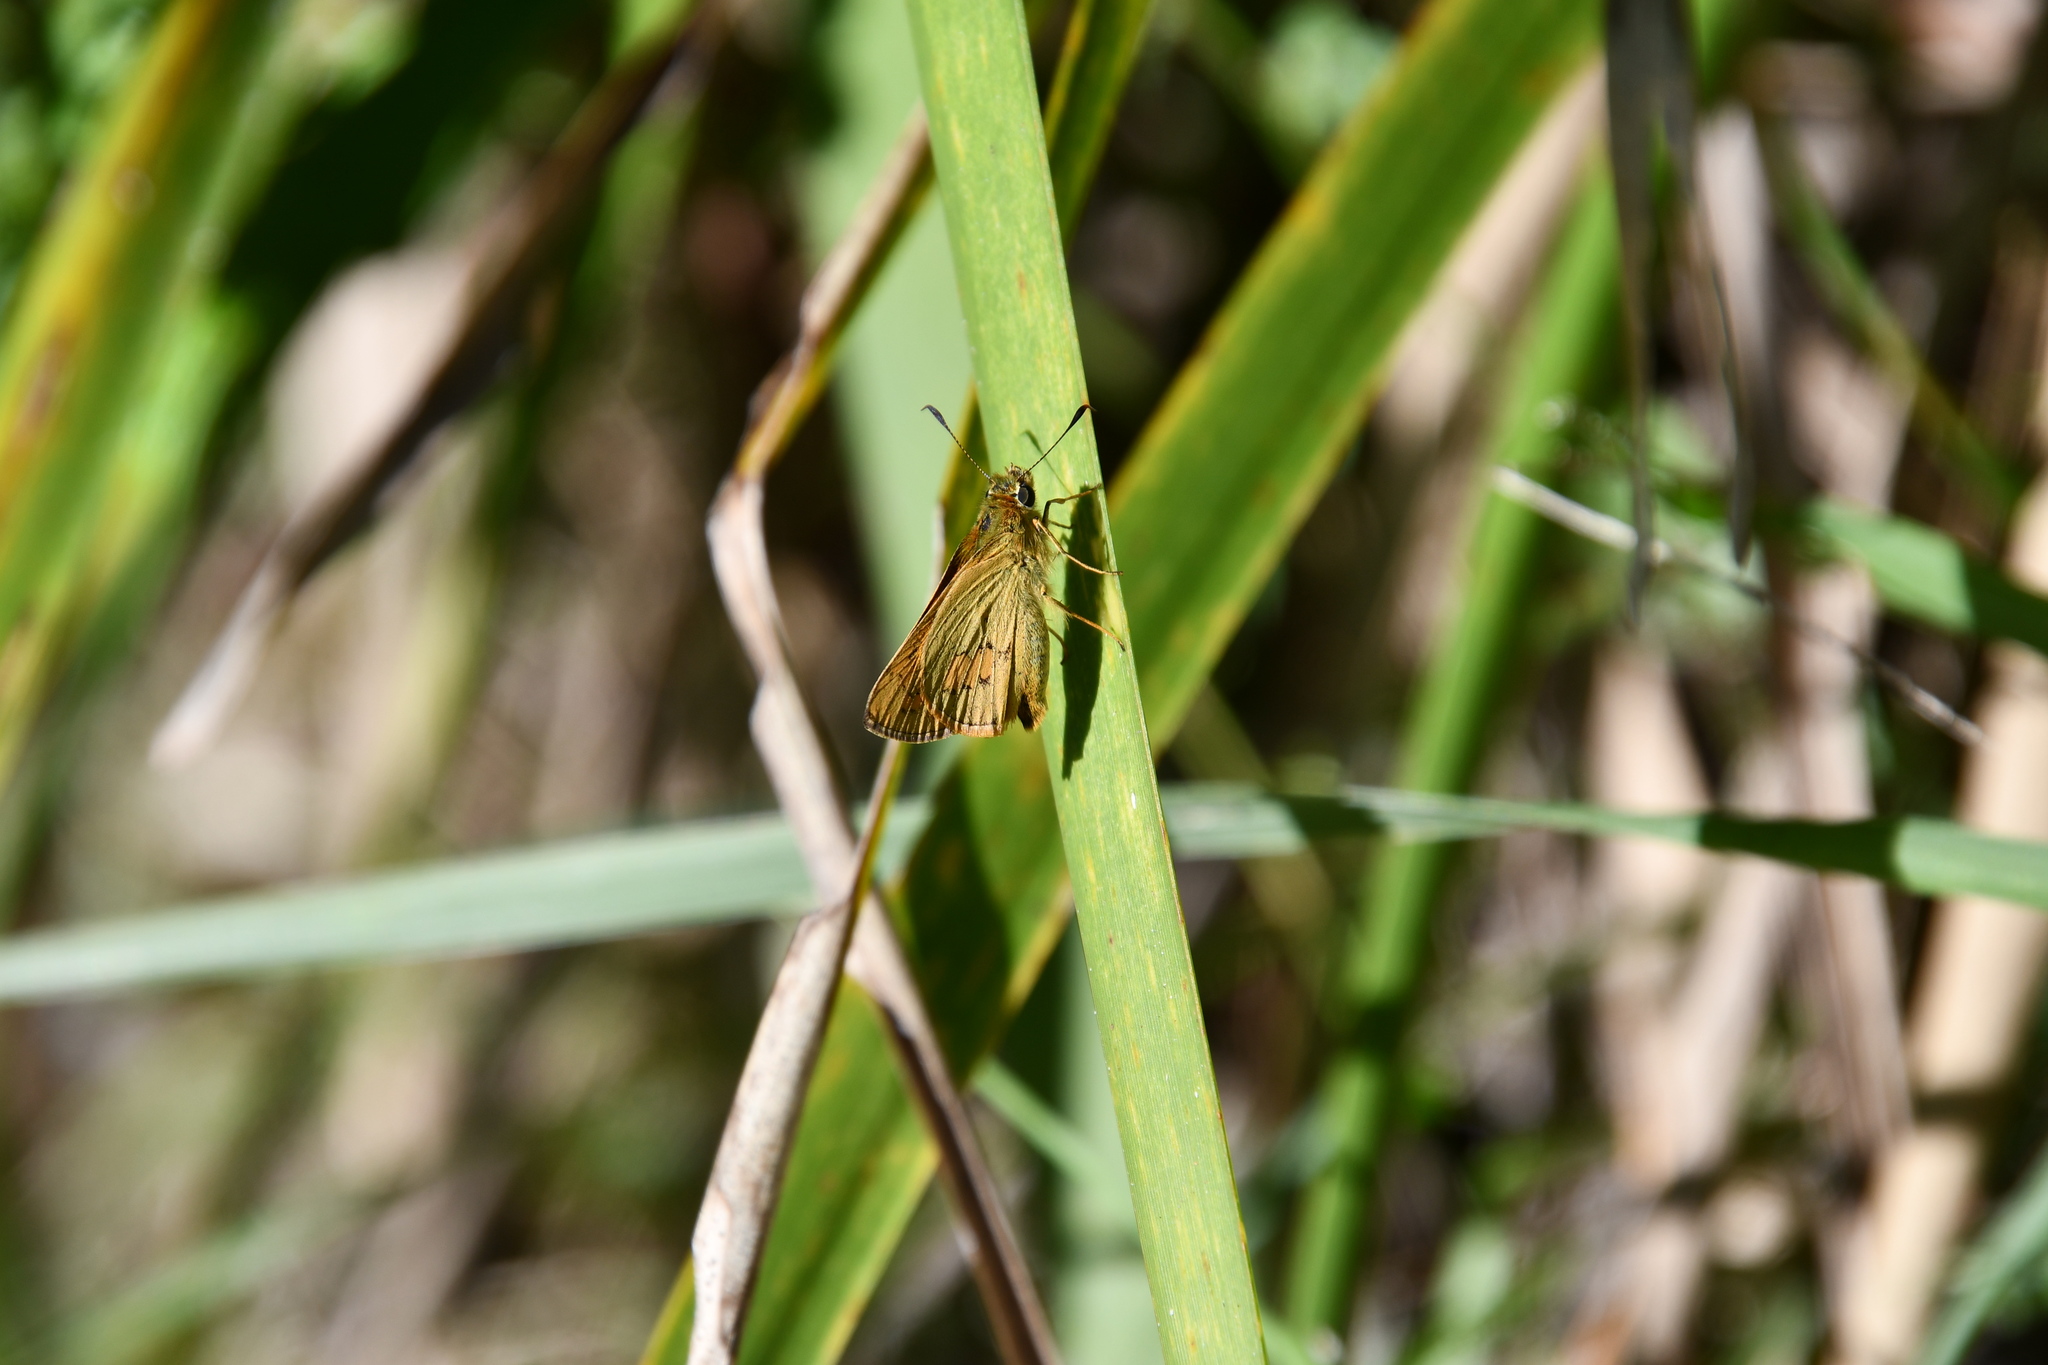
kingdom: Animalia
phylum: Arthropoda
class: Insecta
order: Lepidoptera
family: Hesperiidae
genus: Telicota
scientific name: Telicota ancilla
